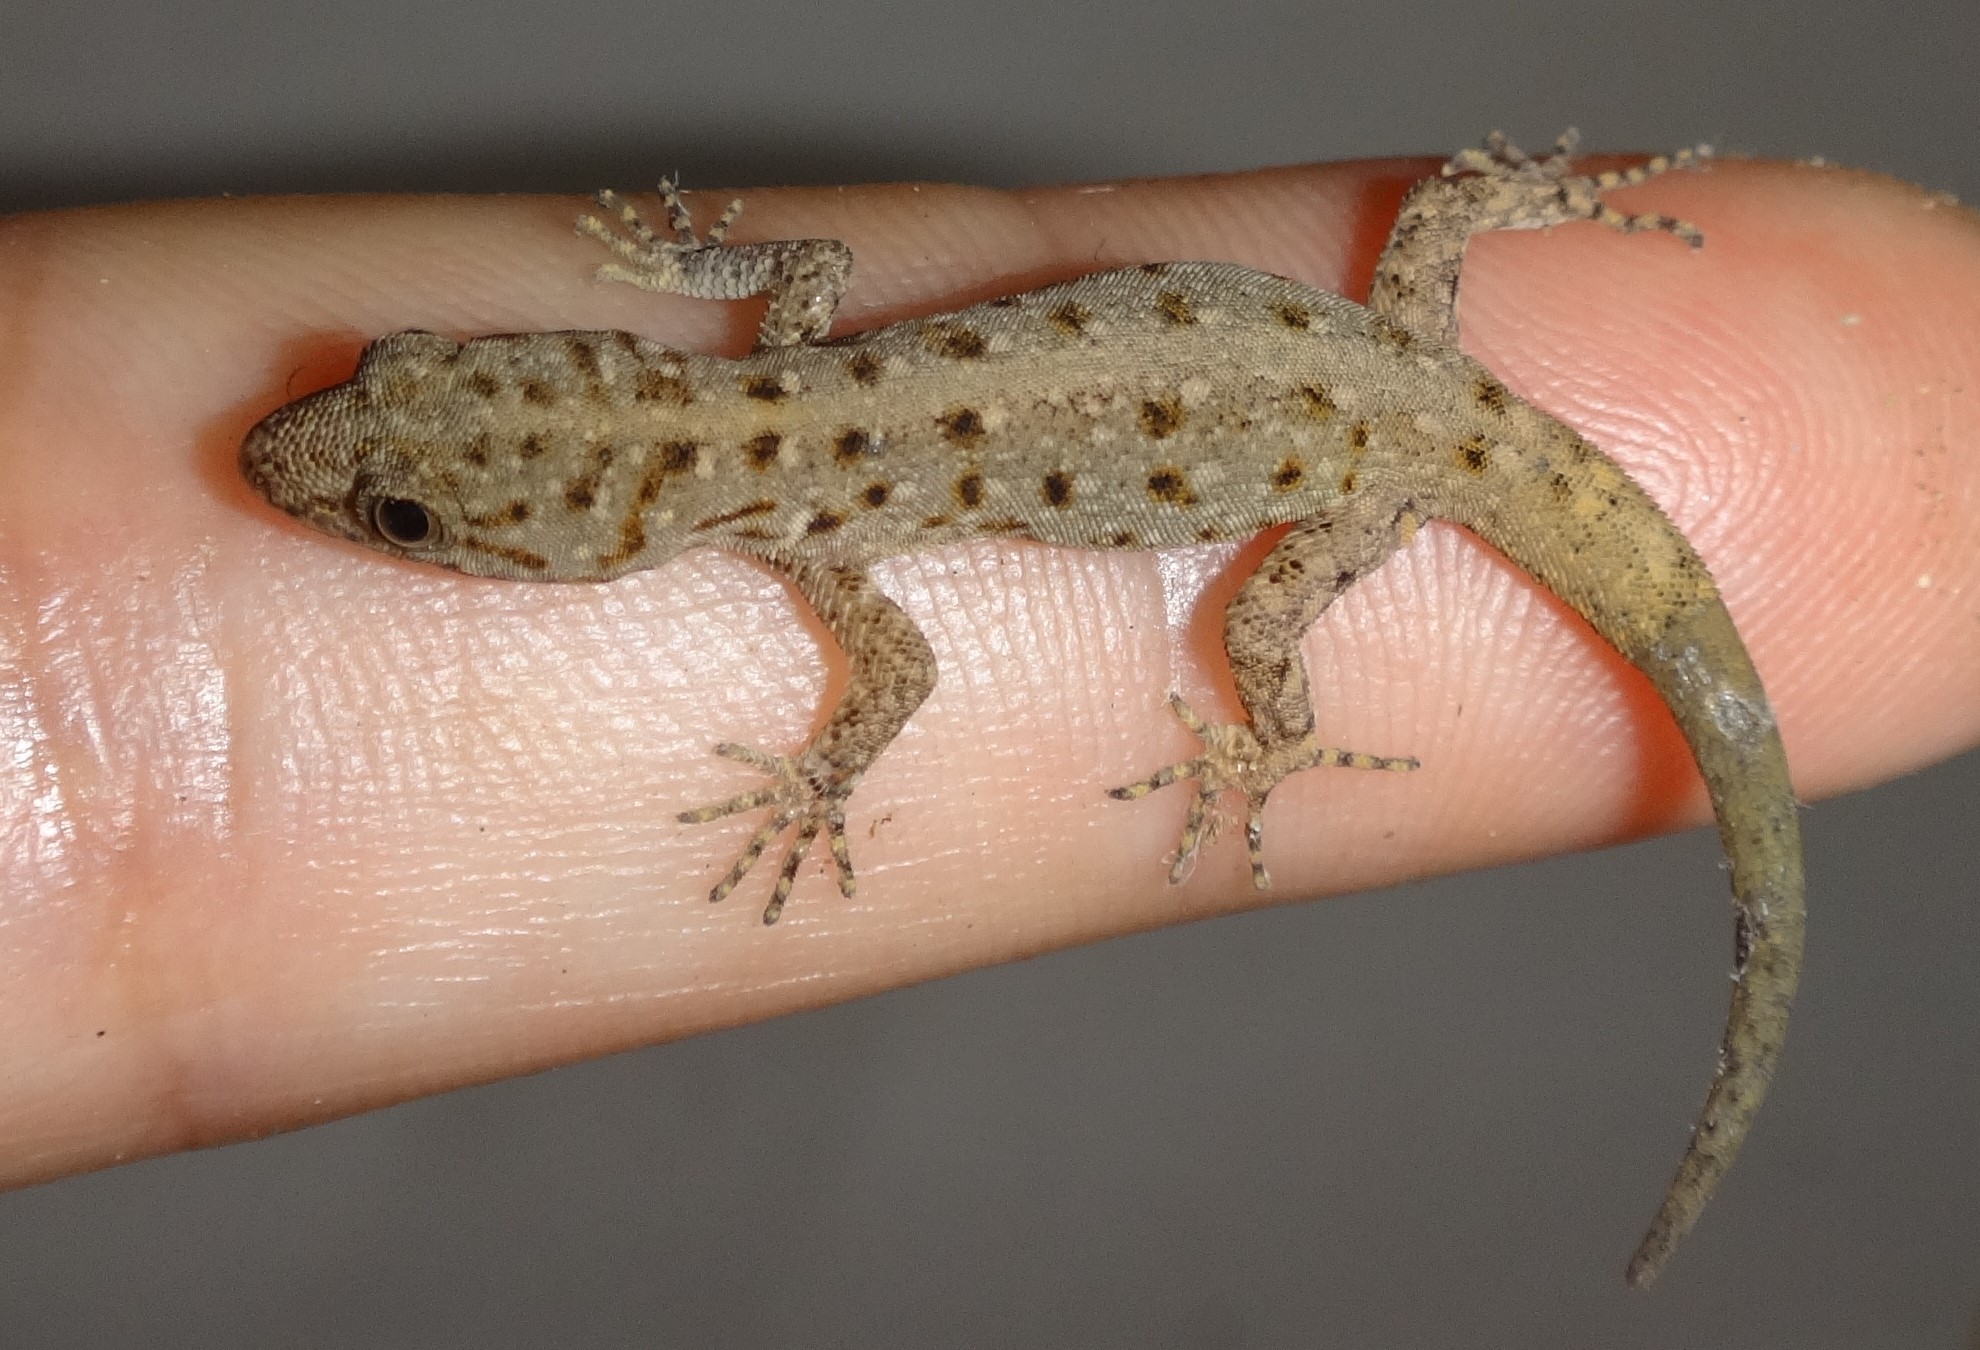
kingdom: Animalia
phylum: Chordata
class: Squamata
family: Sphaerodactylidae
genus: Gonatodes
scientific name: Gonatodes vittatus
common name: Wiegmann's striped gecko
